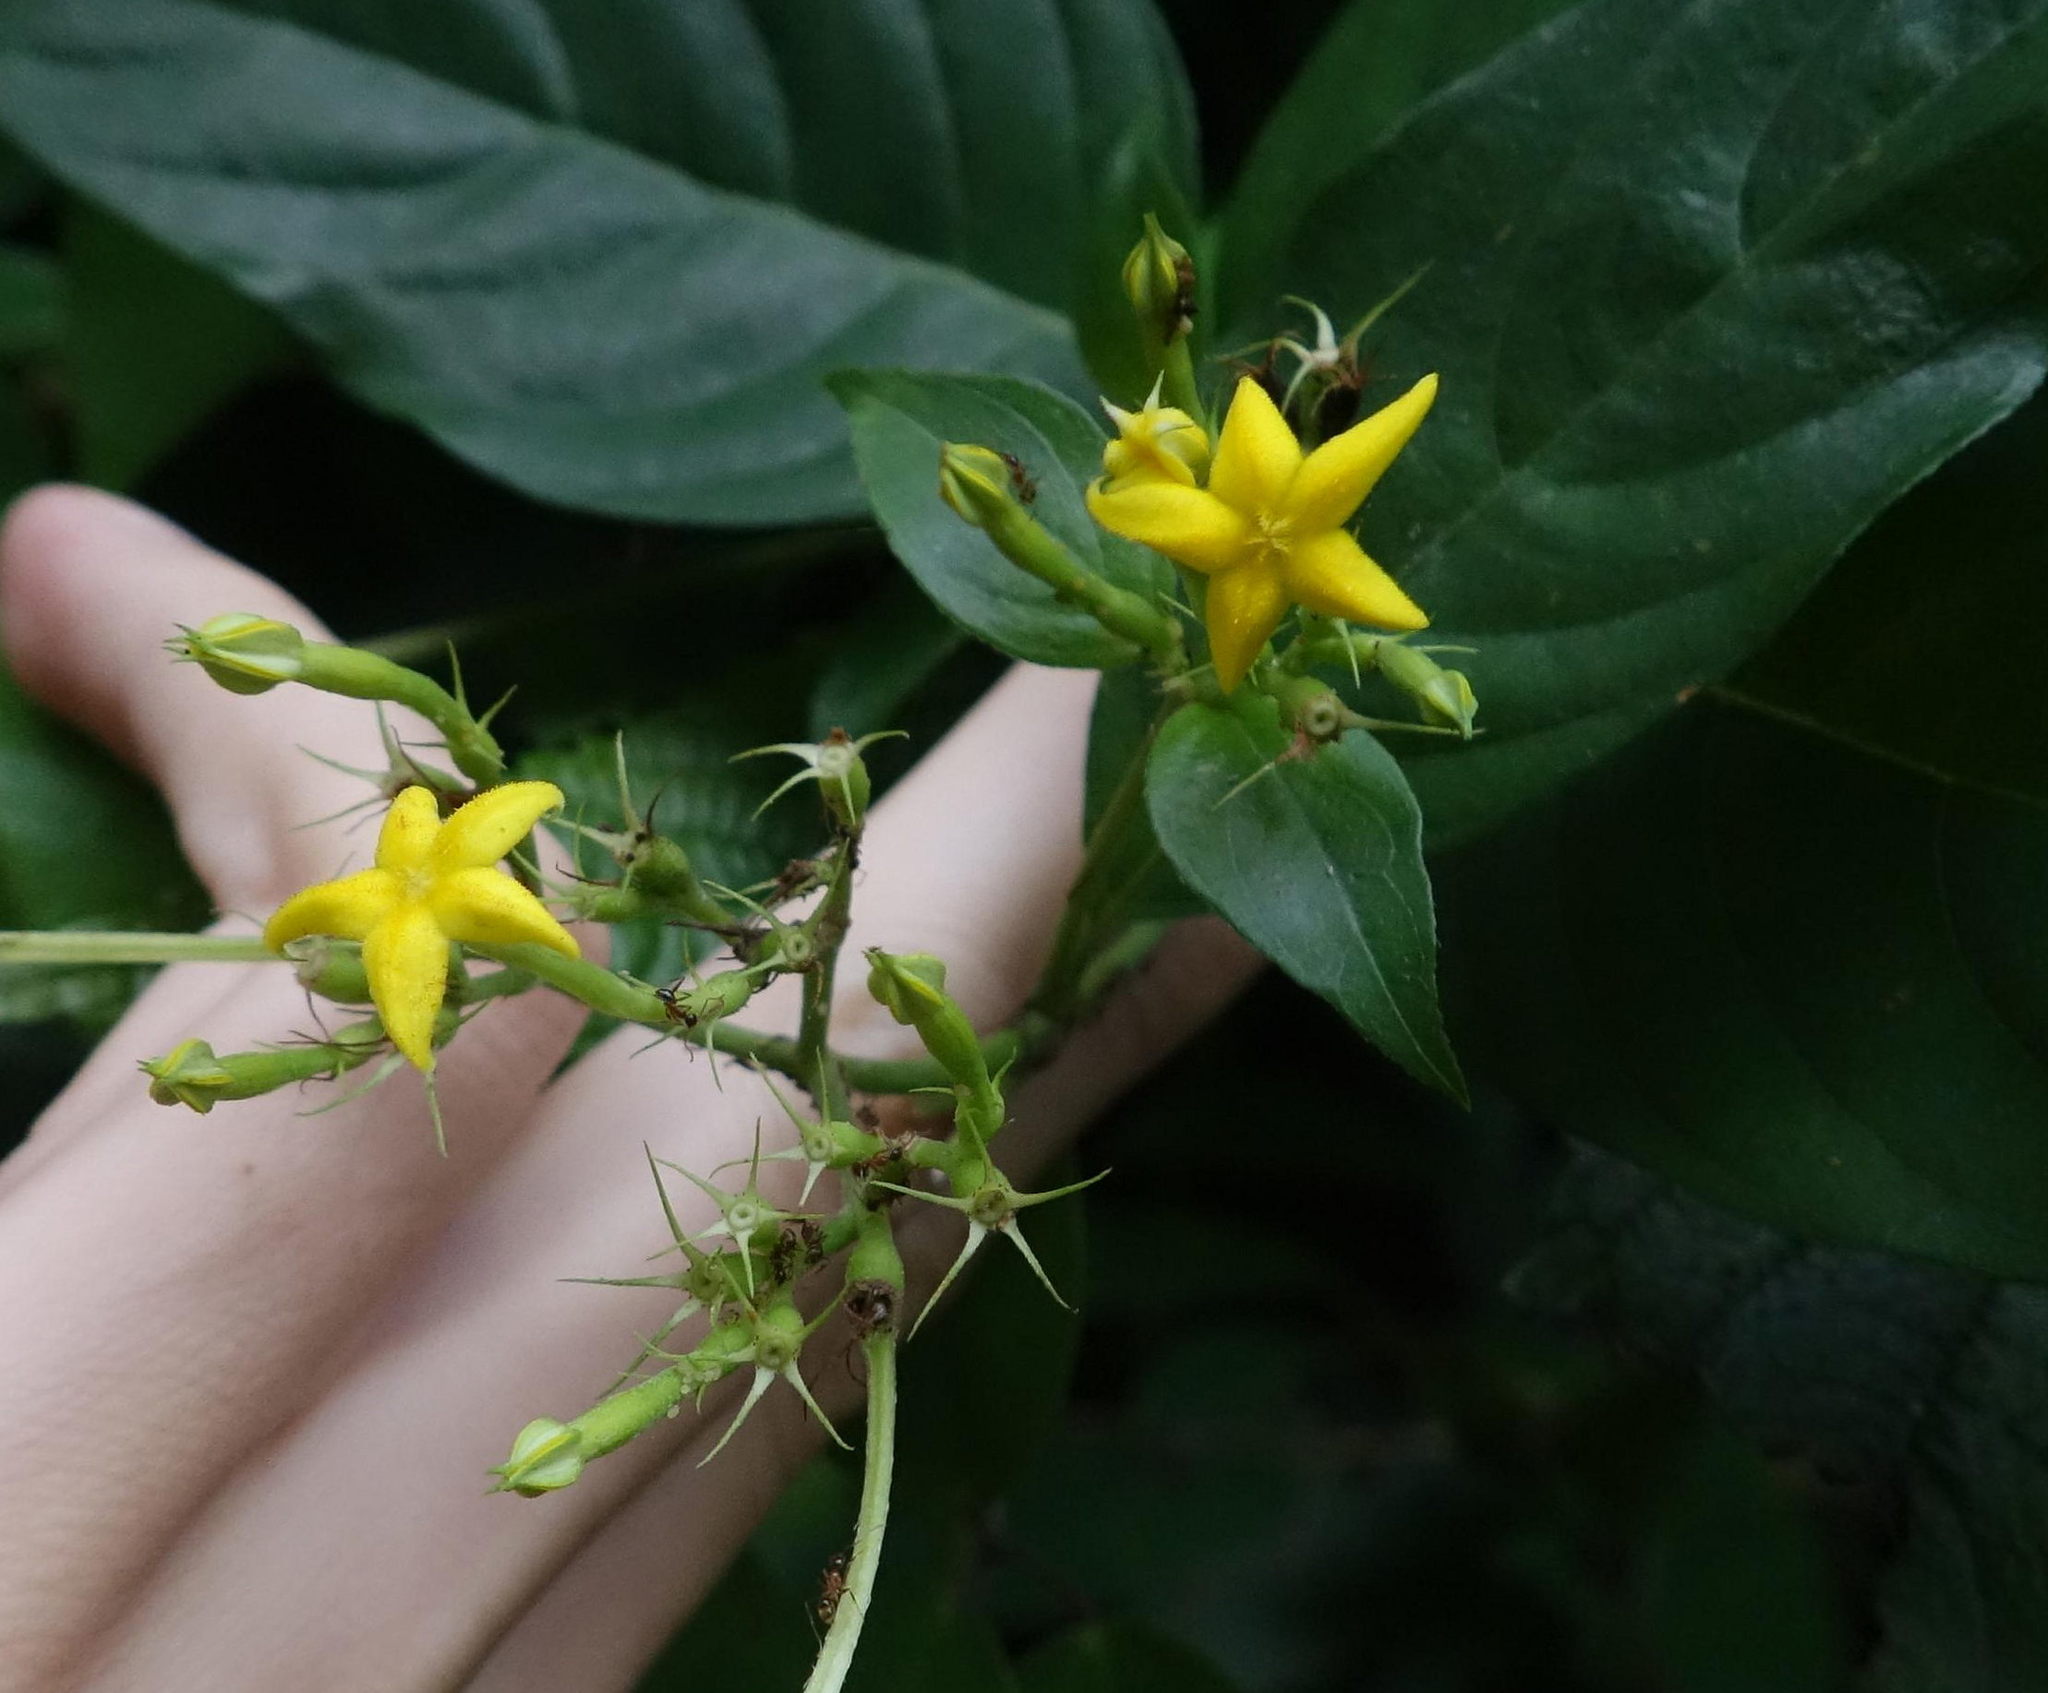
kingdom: Plantae
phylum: Tracheophyta
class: Magnoliopsida
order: Gentianales
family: Rubiaceae
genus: Mussaenda
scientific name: Mussaenda formosana
